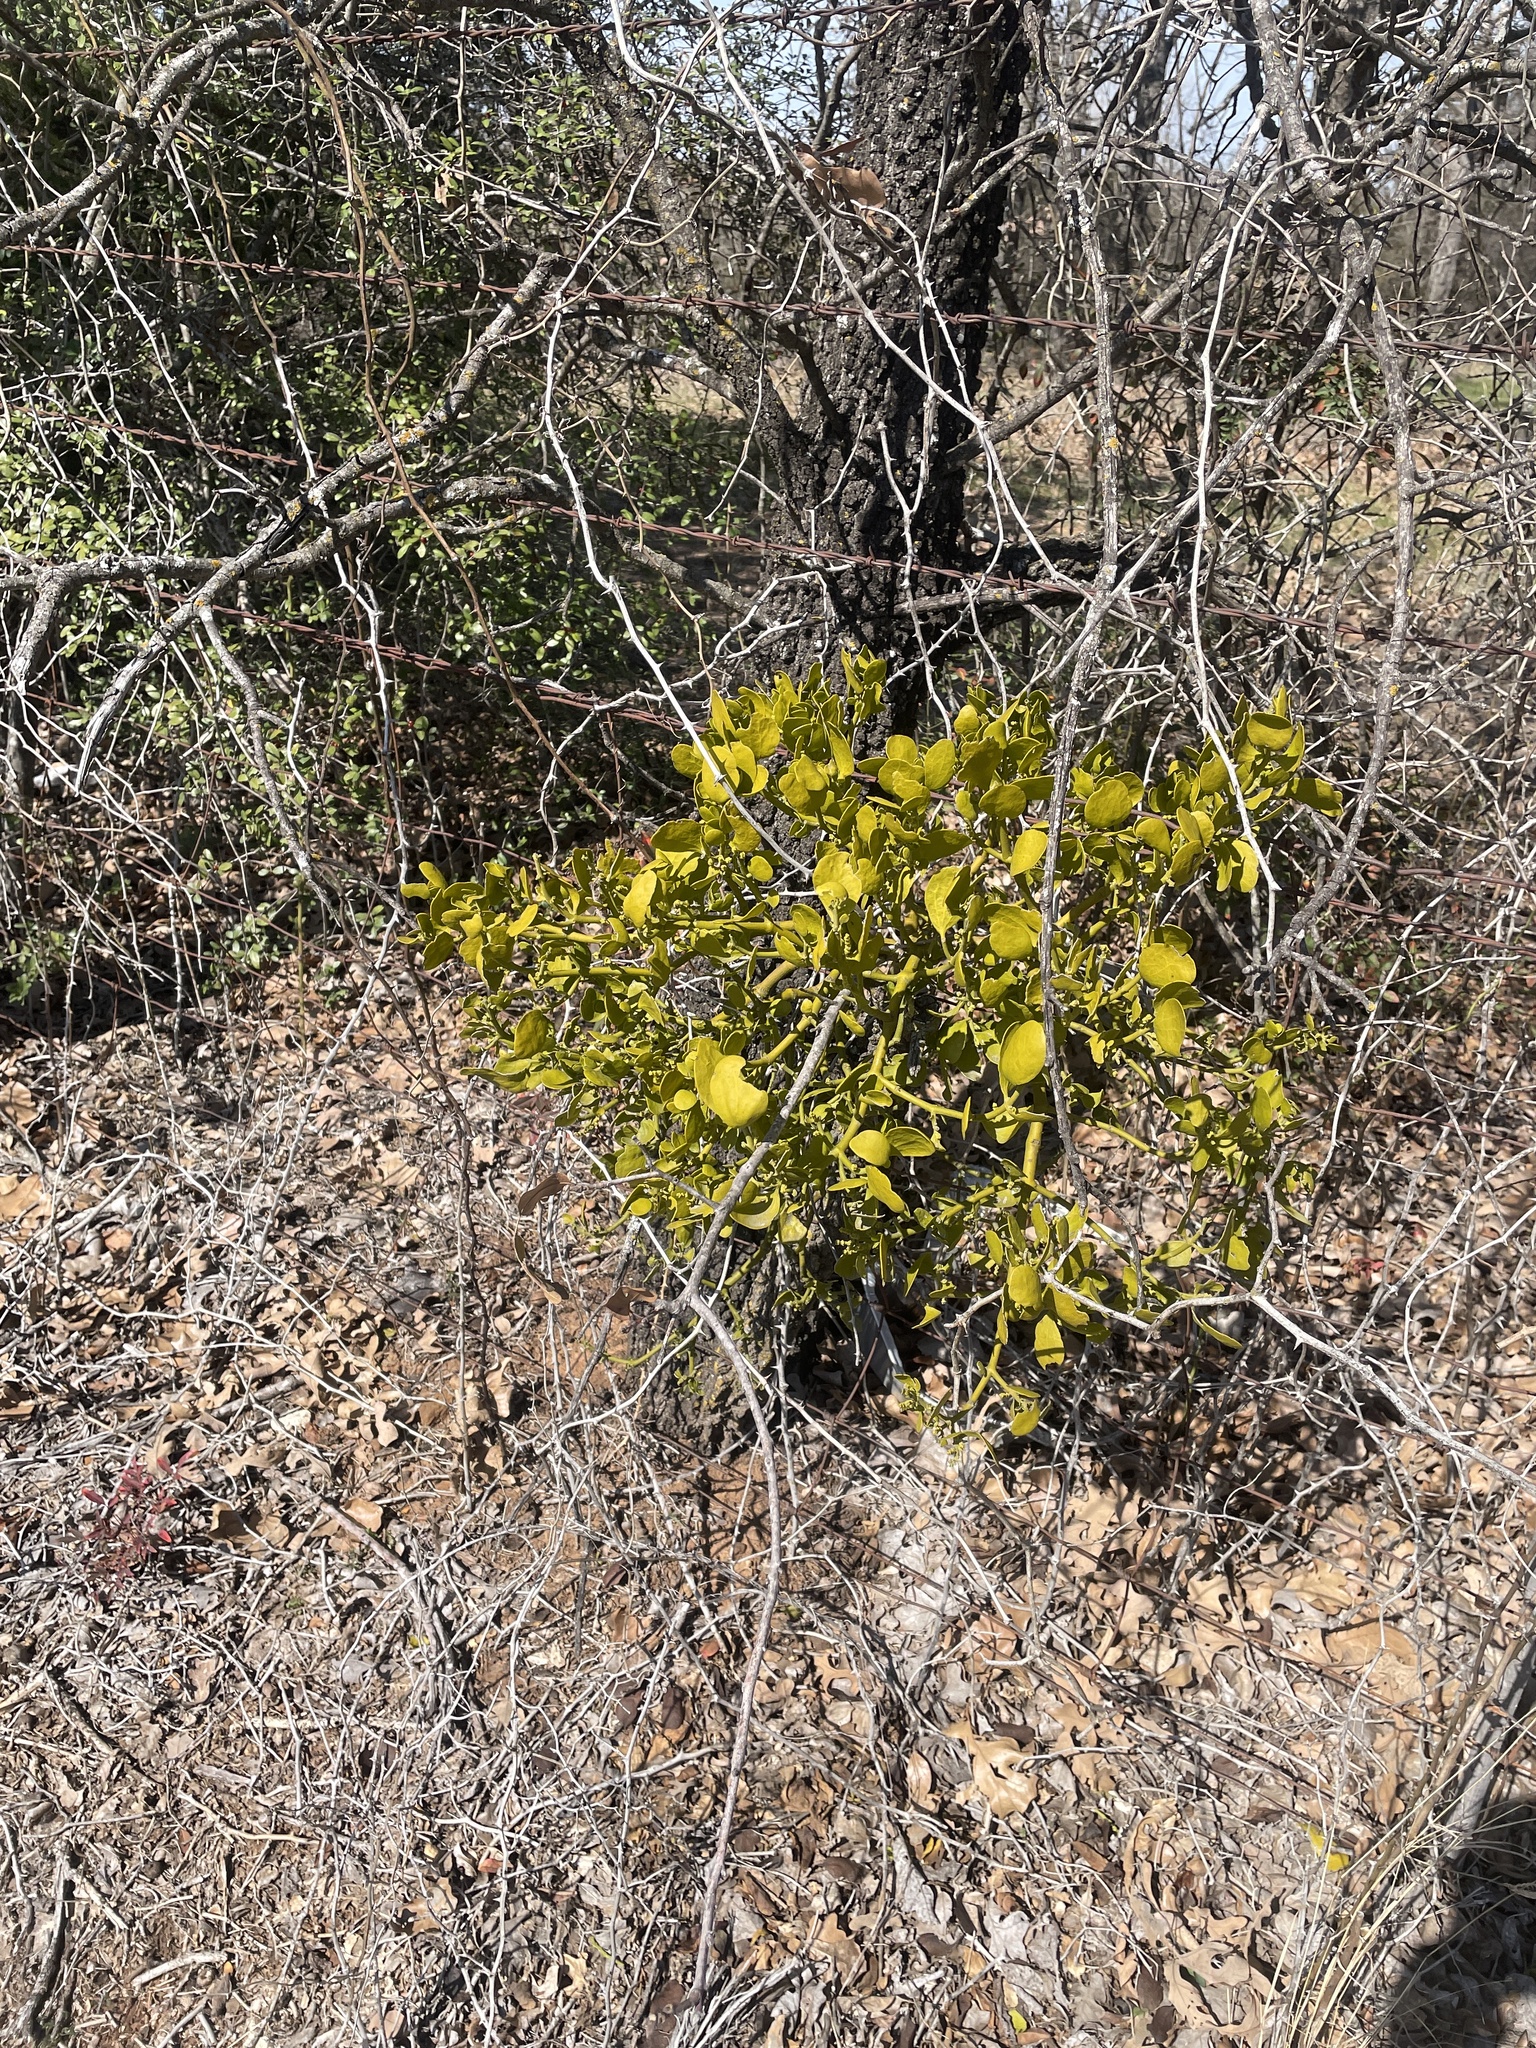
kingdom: Plantae
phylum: Tracheophyta
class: Magnoliopsida
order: Santalales
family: Viscaceae
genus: Phoradendron
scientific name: Phoradendron leucarpum
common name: Pacific mistletoe
